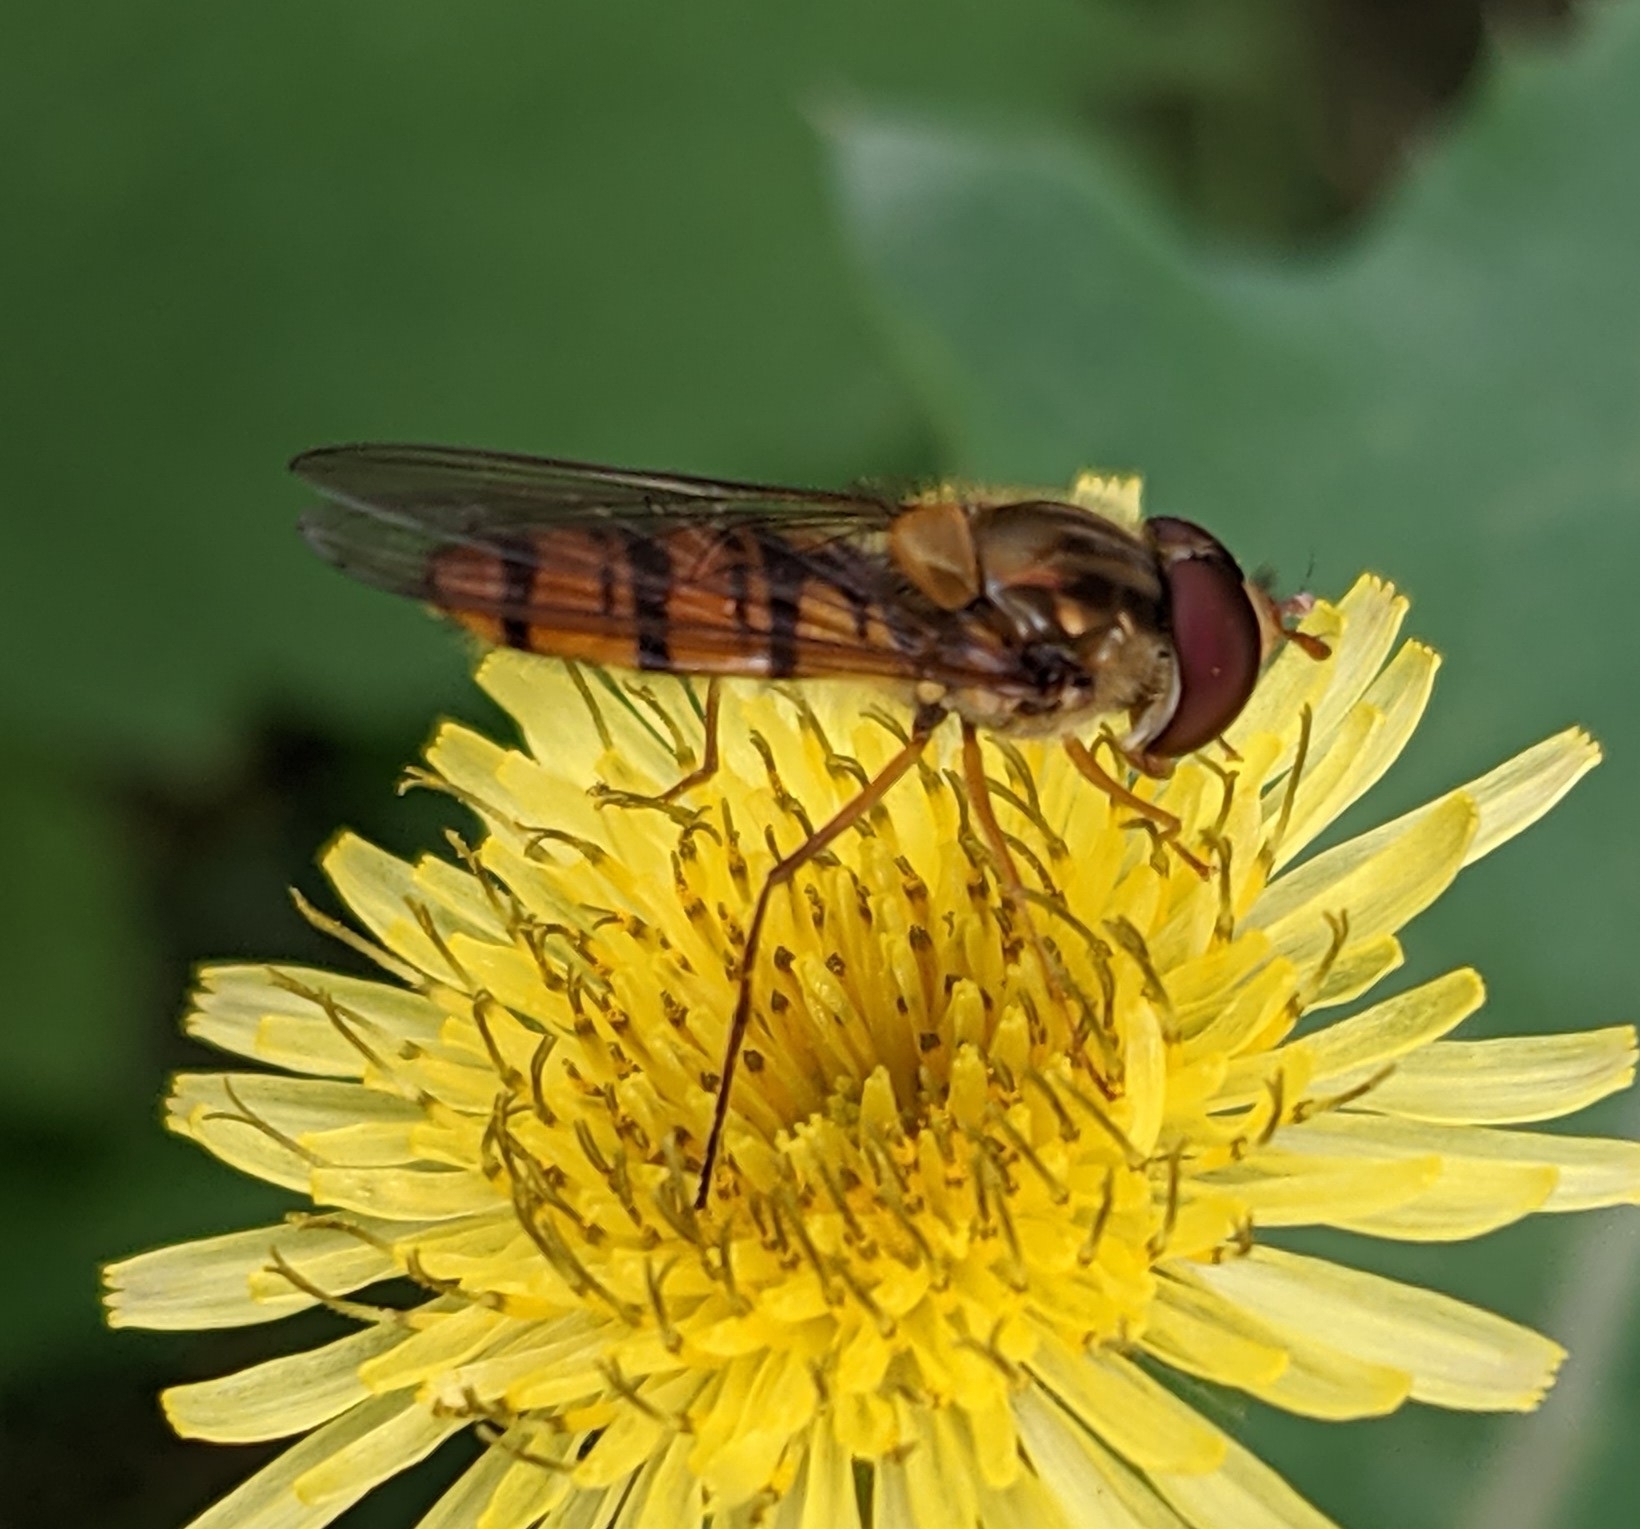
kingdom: Animalia
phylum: Arthropoda
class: Insecta
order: Diptera
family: Syrphidae
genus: Episyrphus
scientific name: Episyrphus balteatus
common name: Marmalade hoverfly
